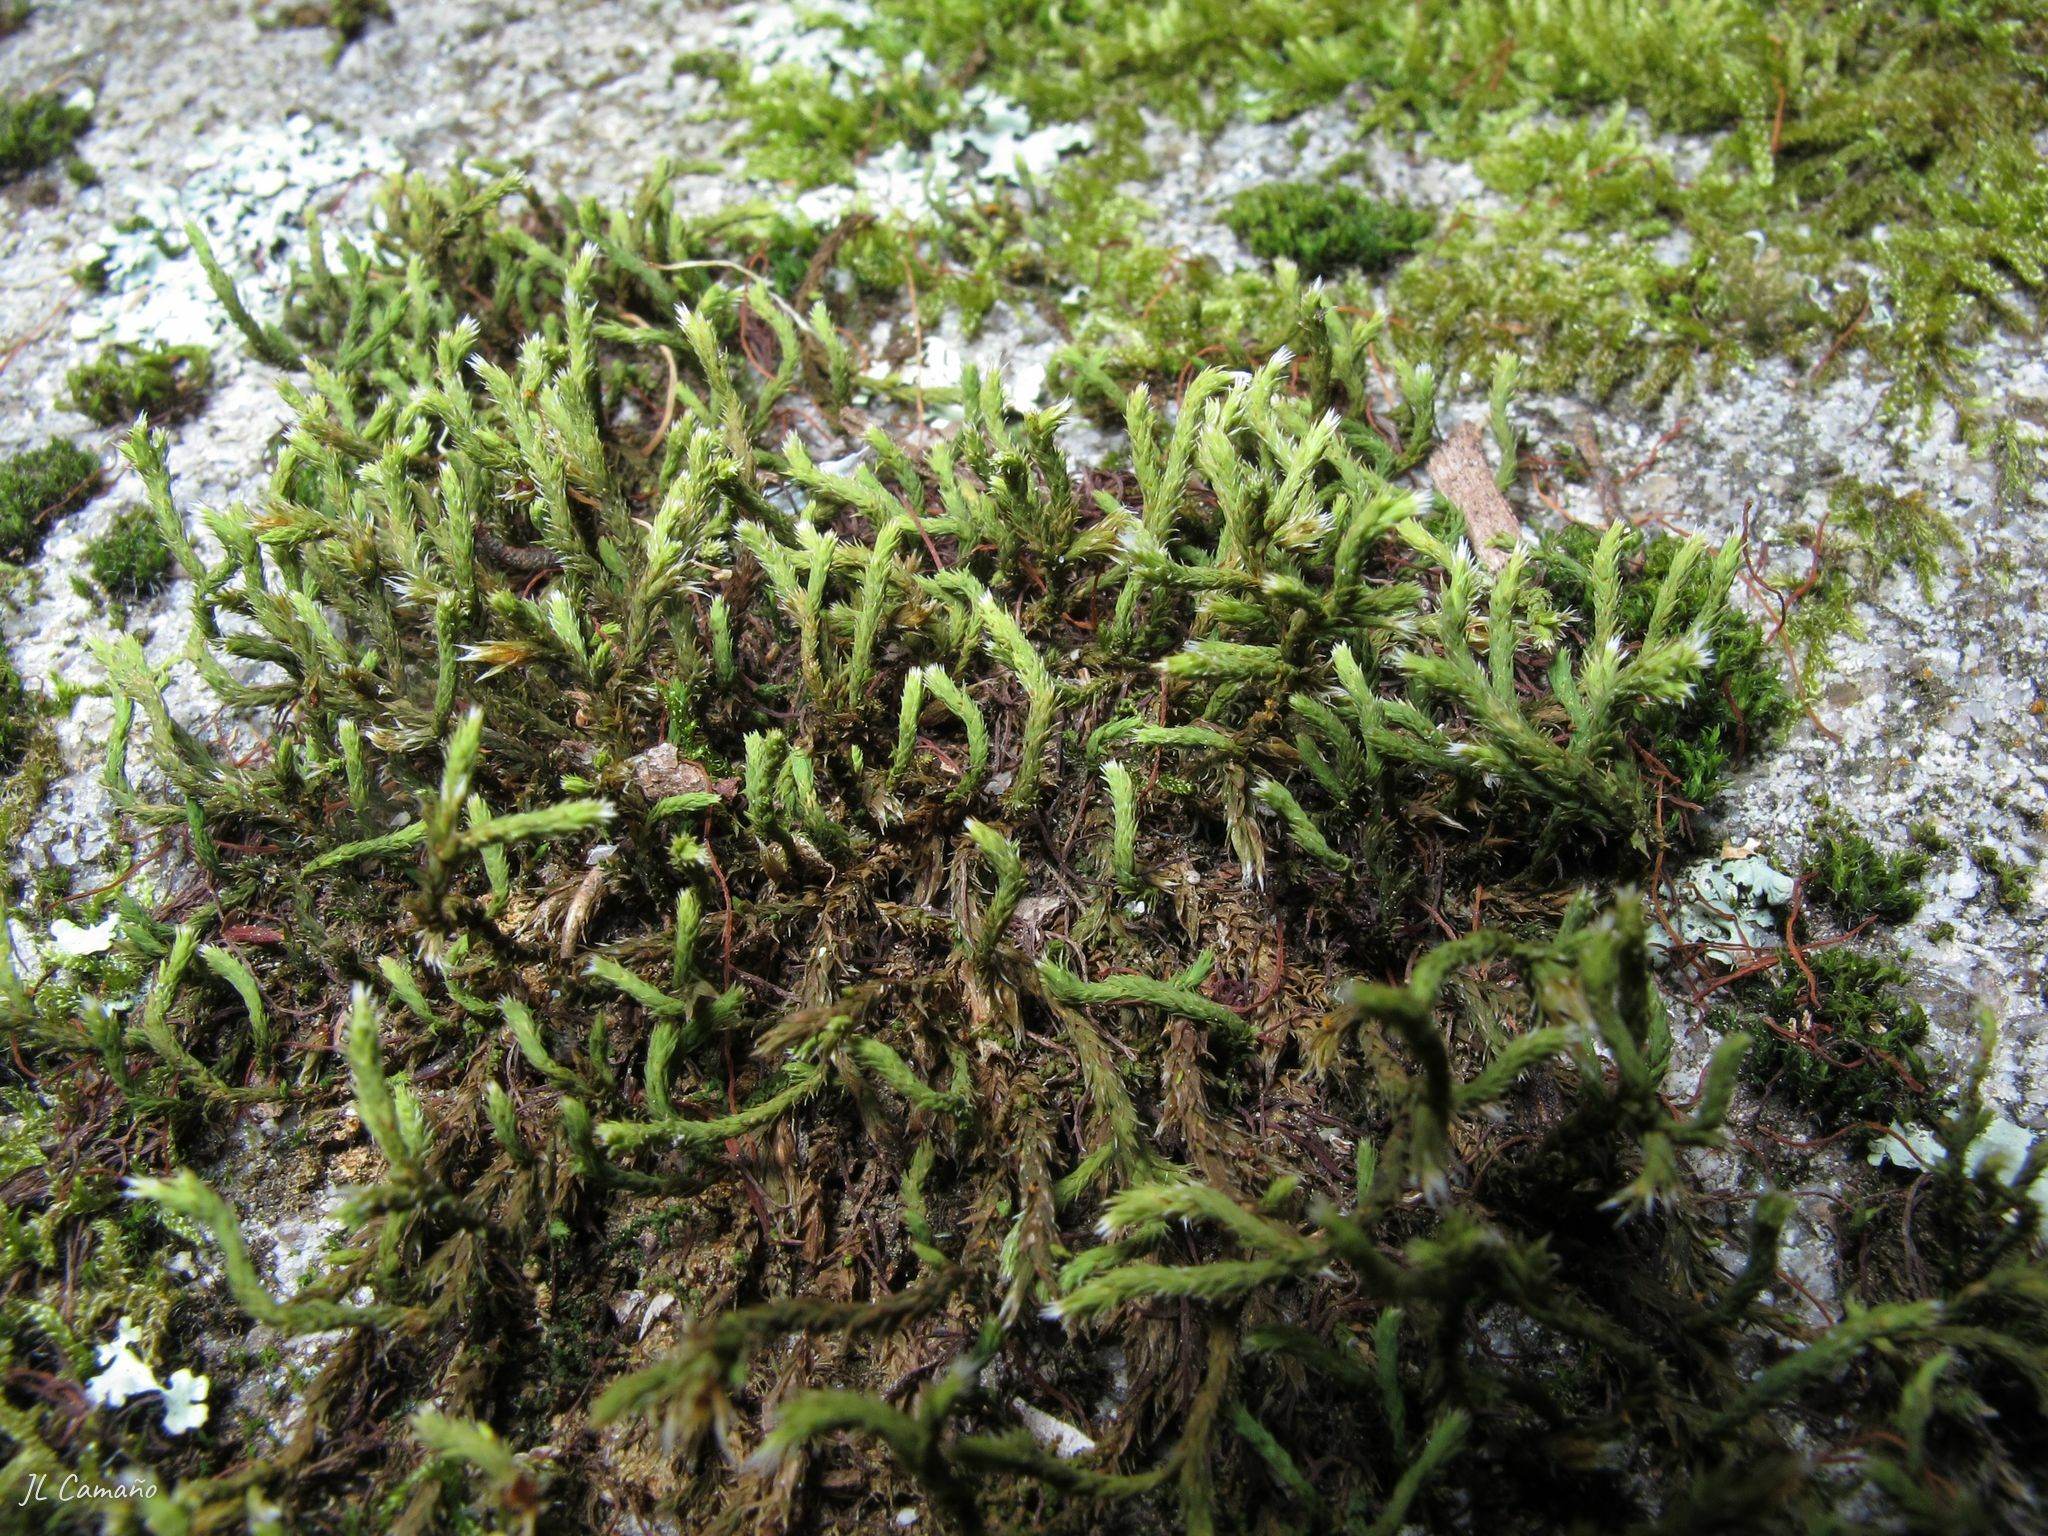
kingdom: Plantae
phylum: Bryophyta
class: Bryopsida
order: Hedwigiales
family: Hedwigiaceae
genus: Hedwigia
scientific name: Hedwigia ciliata
